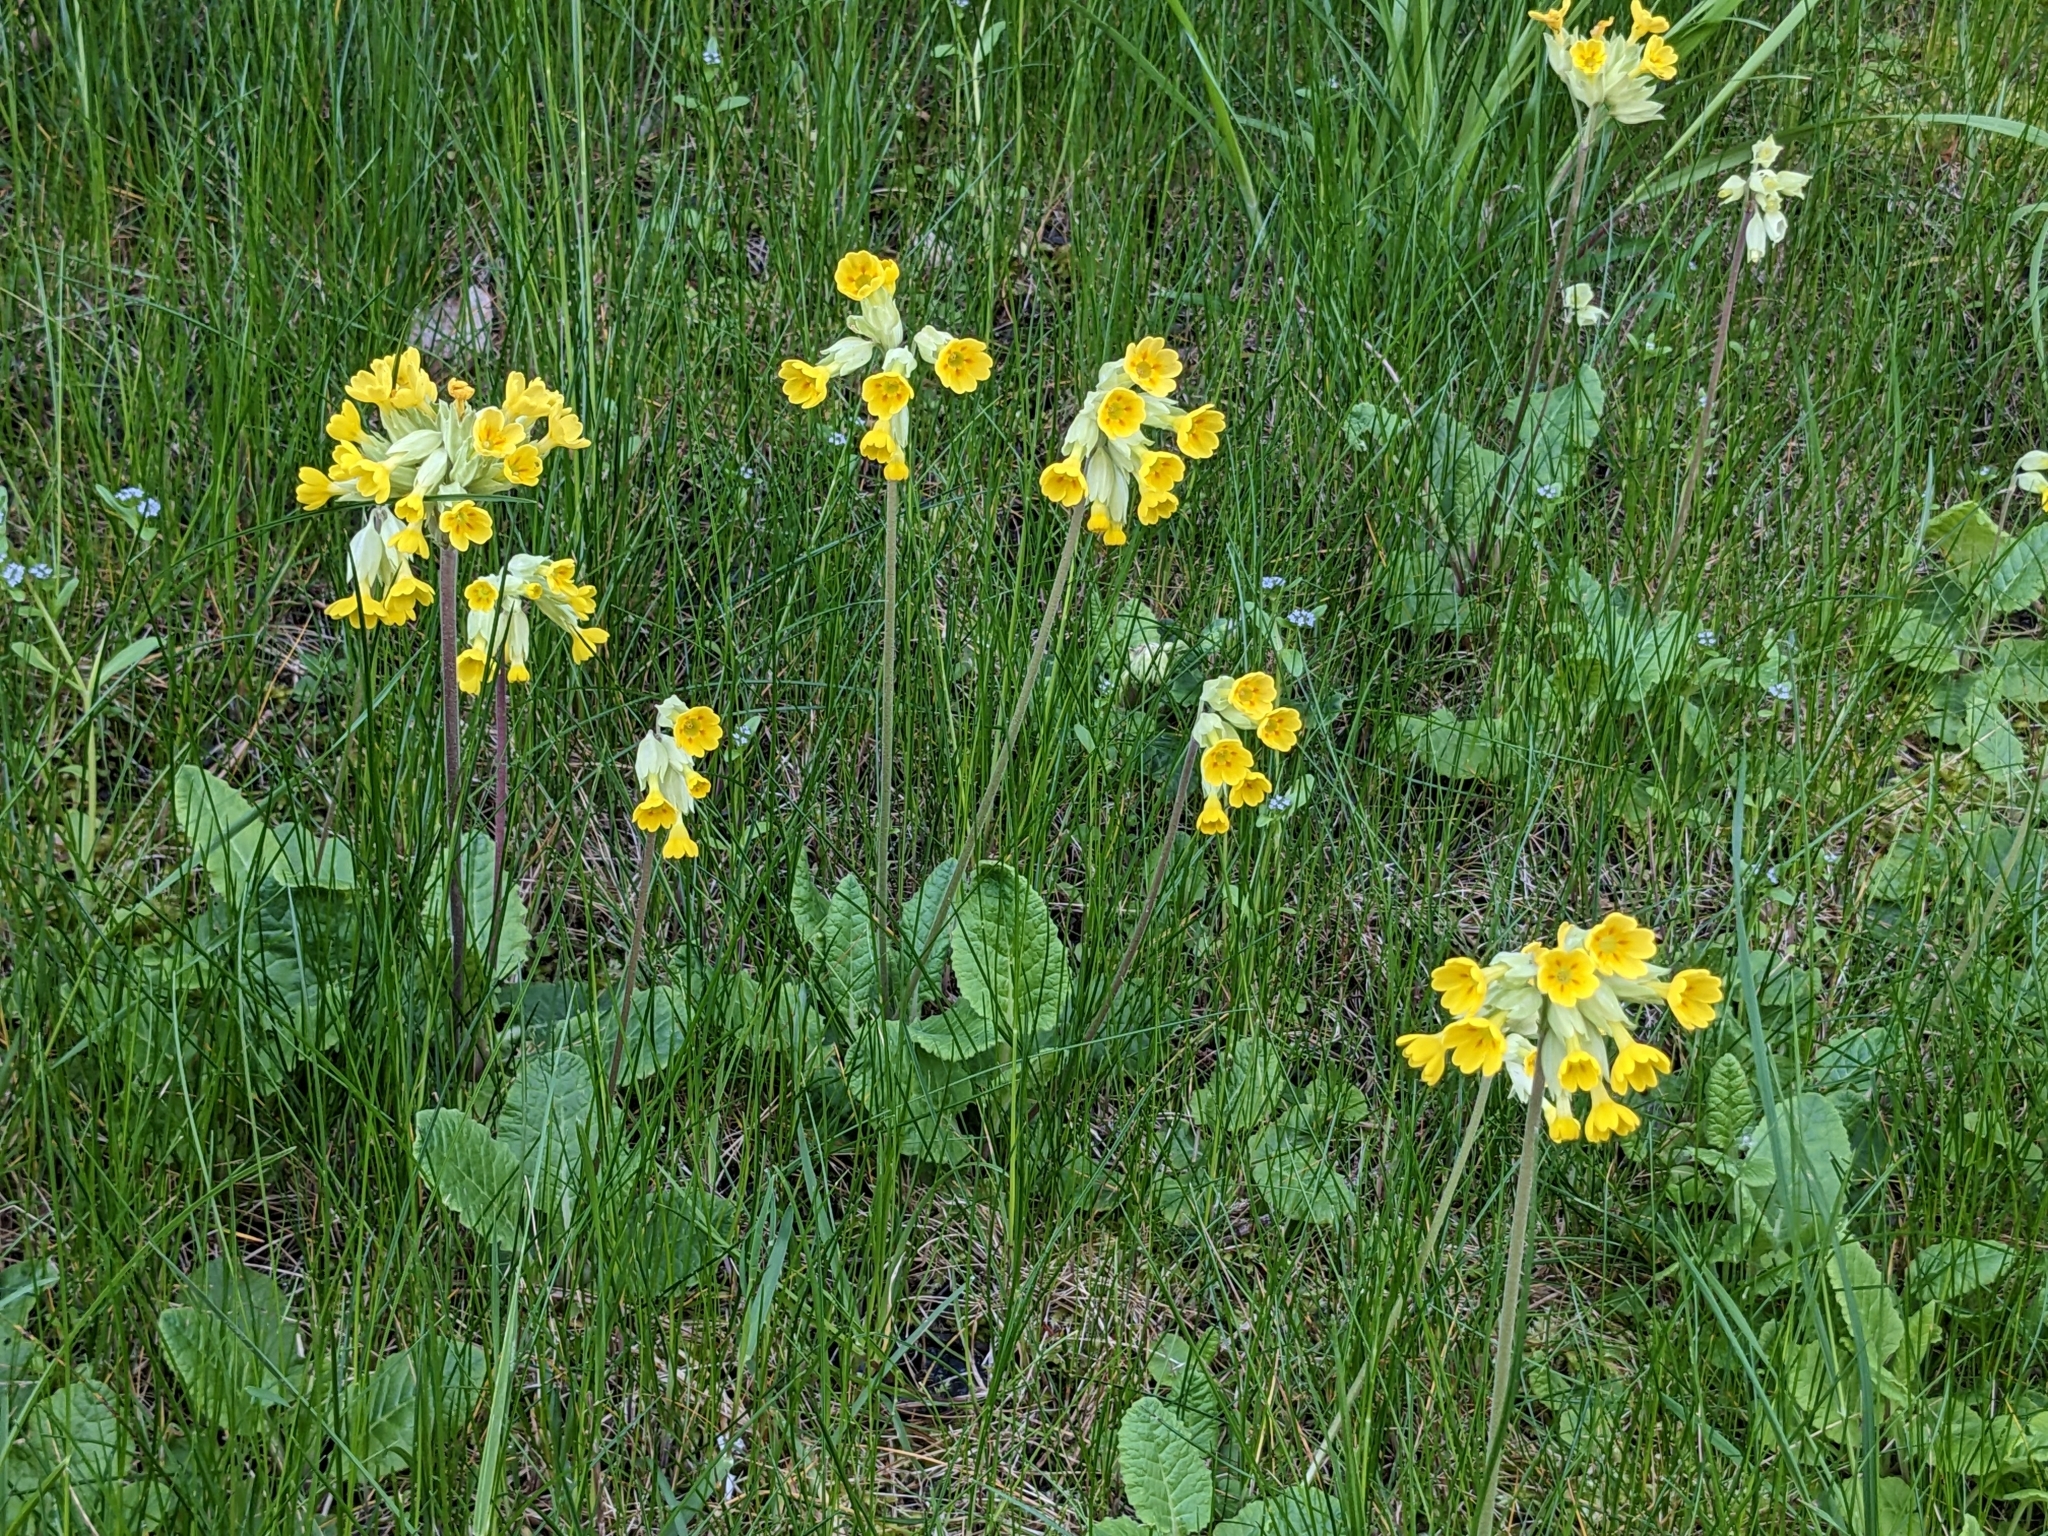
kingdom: Plantae
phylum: Tracheophyta
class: Magnoliopsida
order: Ericales
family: Primulaceae
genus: Primula
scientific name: Primula veris
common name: Cowslip
